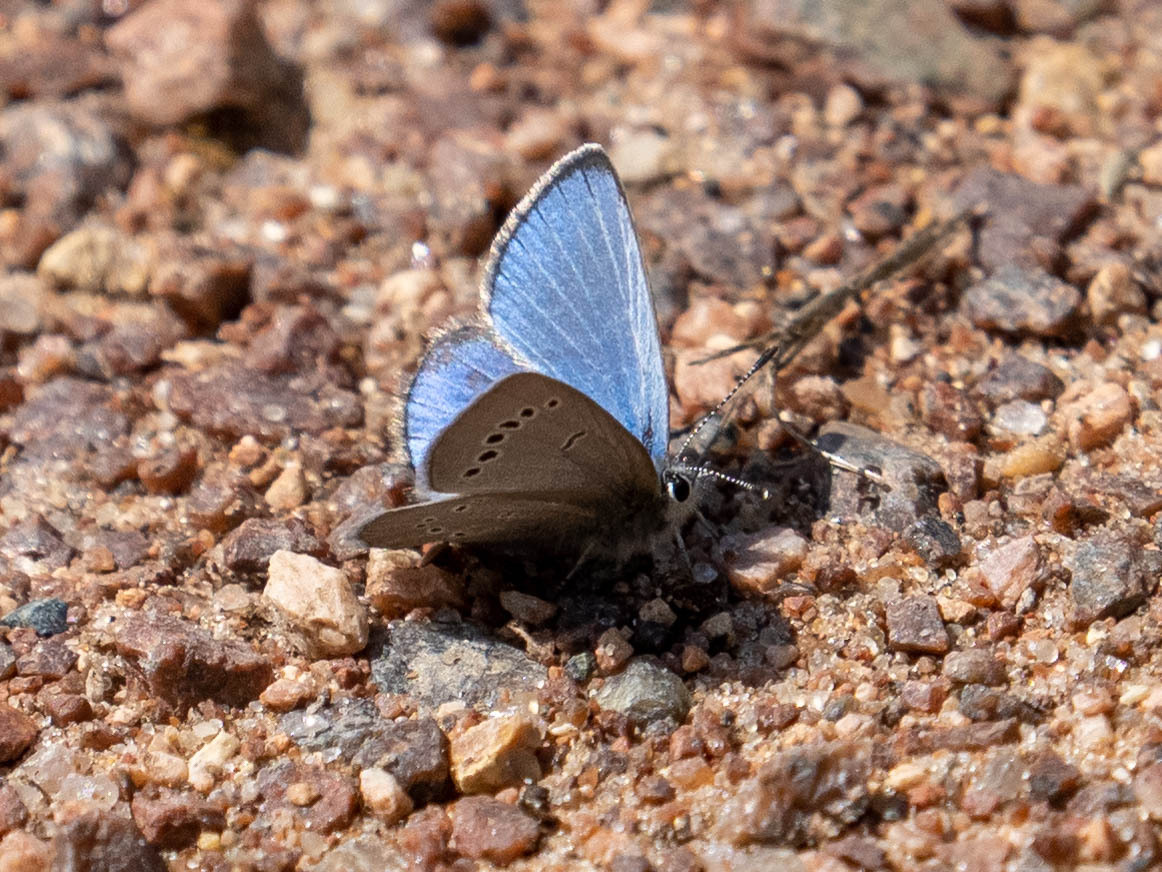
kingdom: Animalia
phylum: Arthropoda
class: Insecta
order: Lepidoptera
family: Lycaenidae
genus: Glaucopsyche
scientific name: Glaucopsyche lygdamus
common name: Silvery blue
